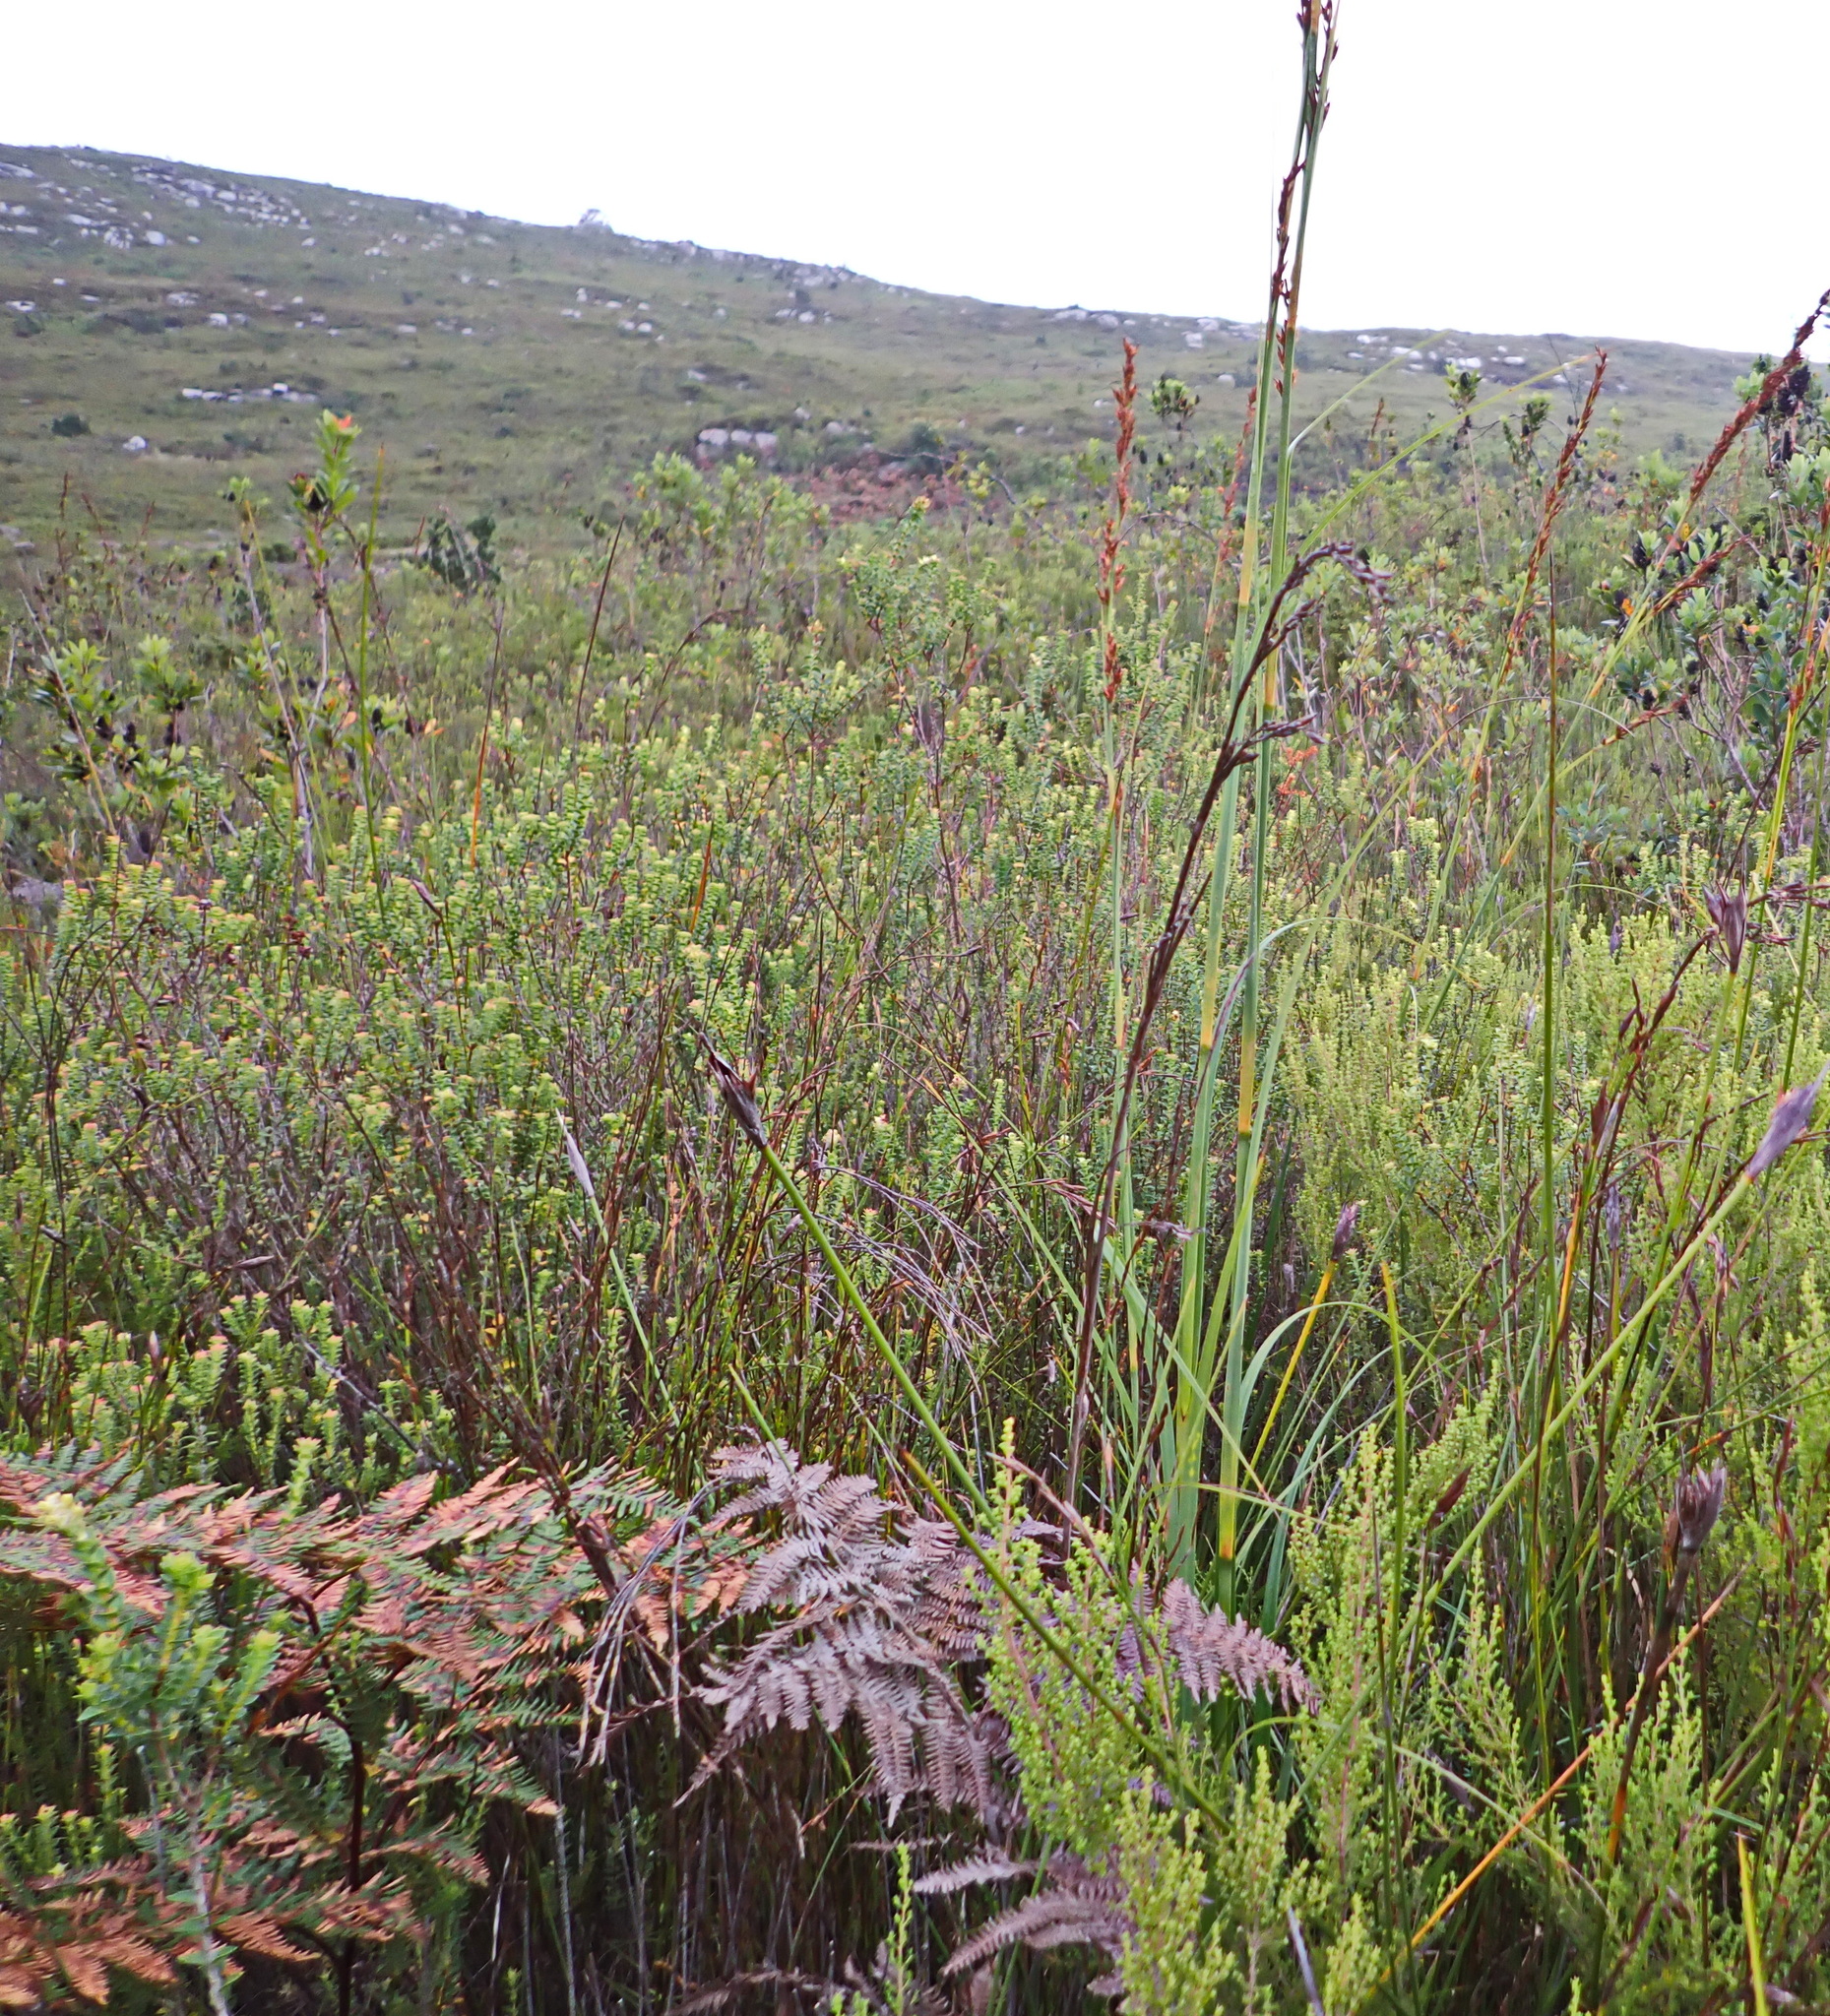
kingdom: Plantae
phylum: Tracheophyta
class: Liliopsida
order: Poales
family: Cyperaceae
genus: Tetraria
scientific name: Tetraria involucrata
